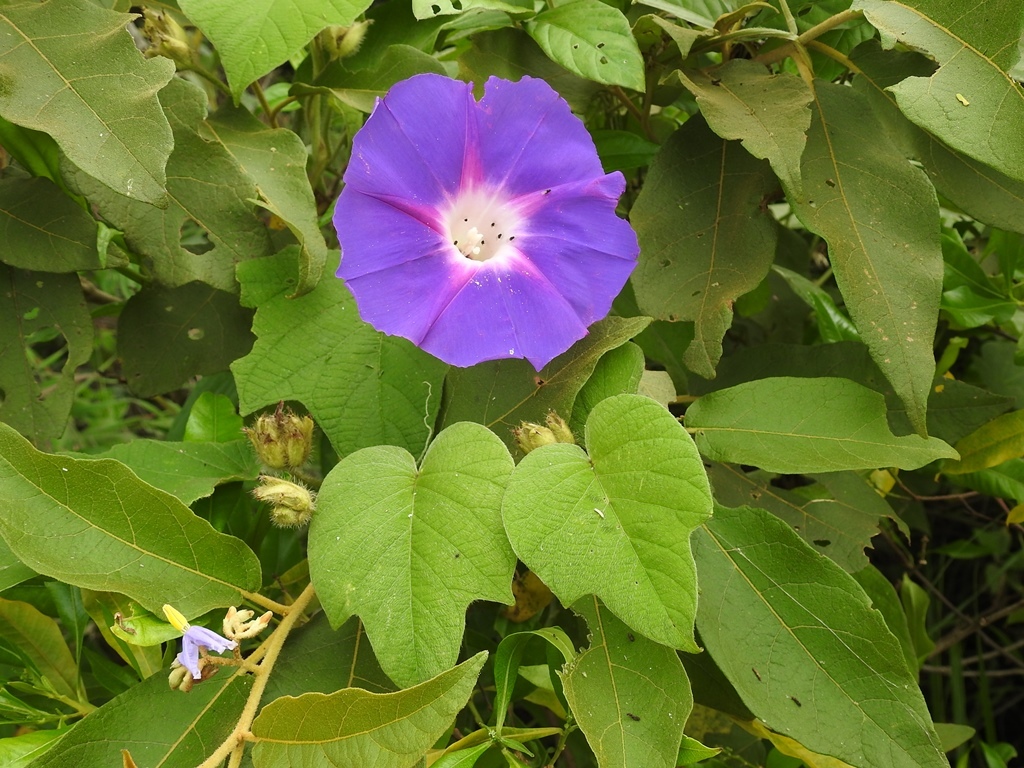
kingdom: Plantae
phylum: Tracheophyta
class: Magnoliopsida
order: Solanales
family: Convolvulaceae
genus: Ipomoea
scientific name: Ipomoea villifera
